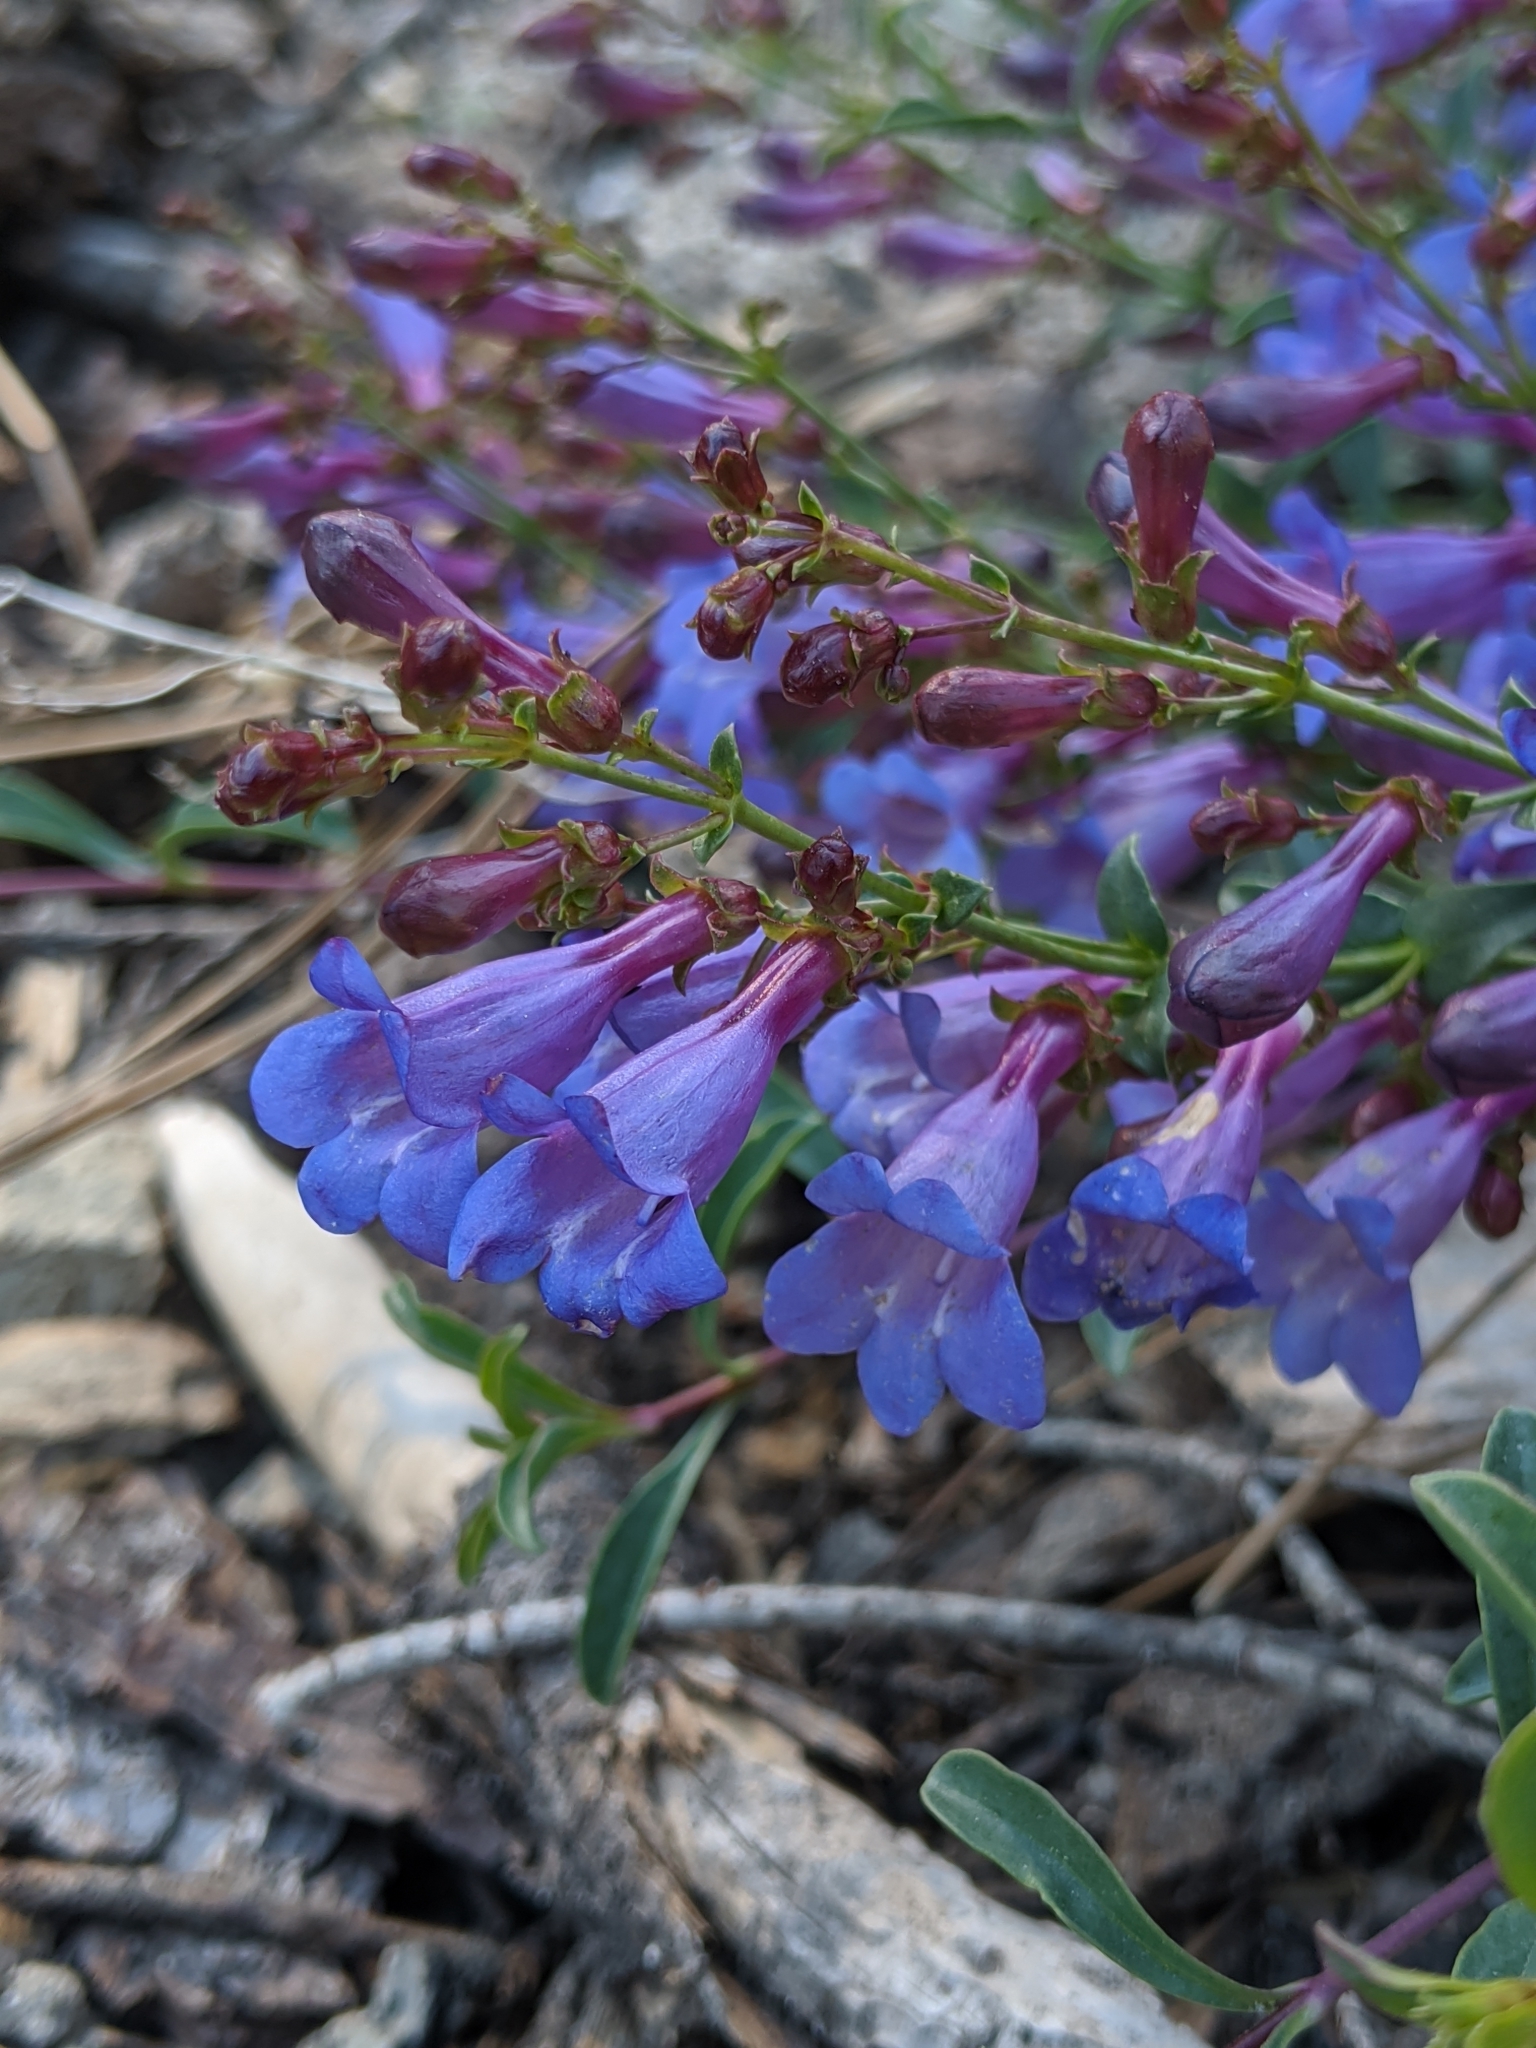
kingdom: Plantae
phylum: Tracheophyta
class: Magnoliopsida
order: Lamiales
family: Plantaginaceae
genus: Penstemon
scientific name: Penstemon azureus
